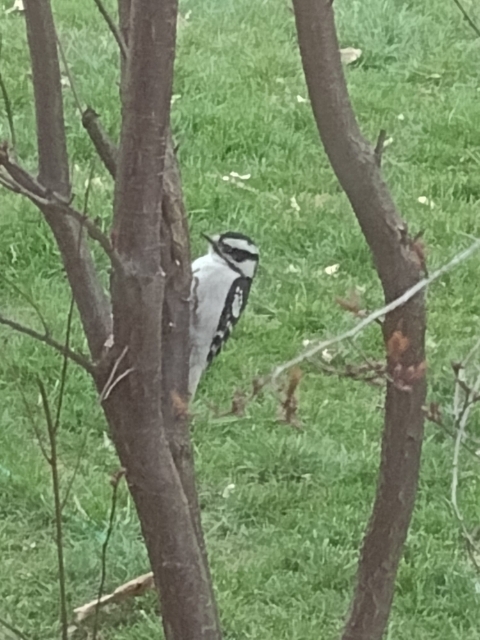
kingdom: Animalia
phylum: Chordata
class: Aves
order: Piciformes
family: Picidae
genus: Dryobates
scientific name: Dryobates pubescens
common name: Downy woodpecker
